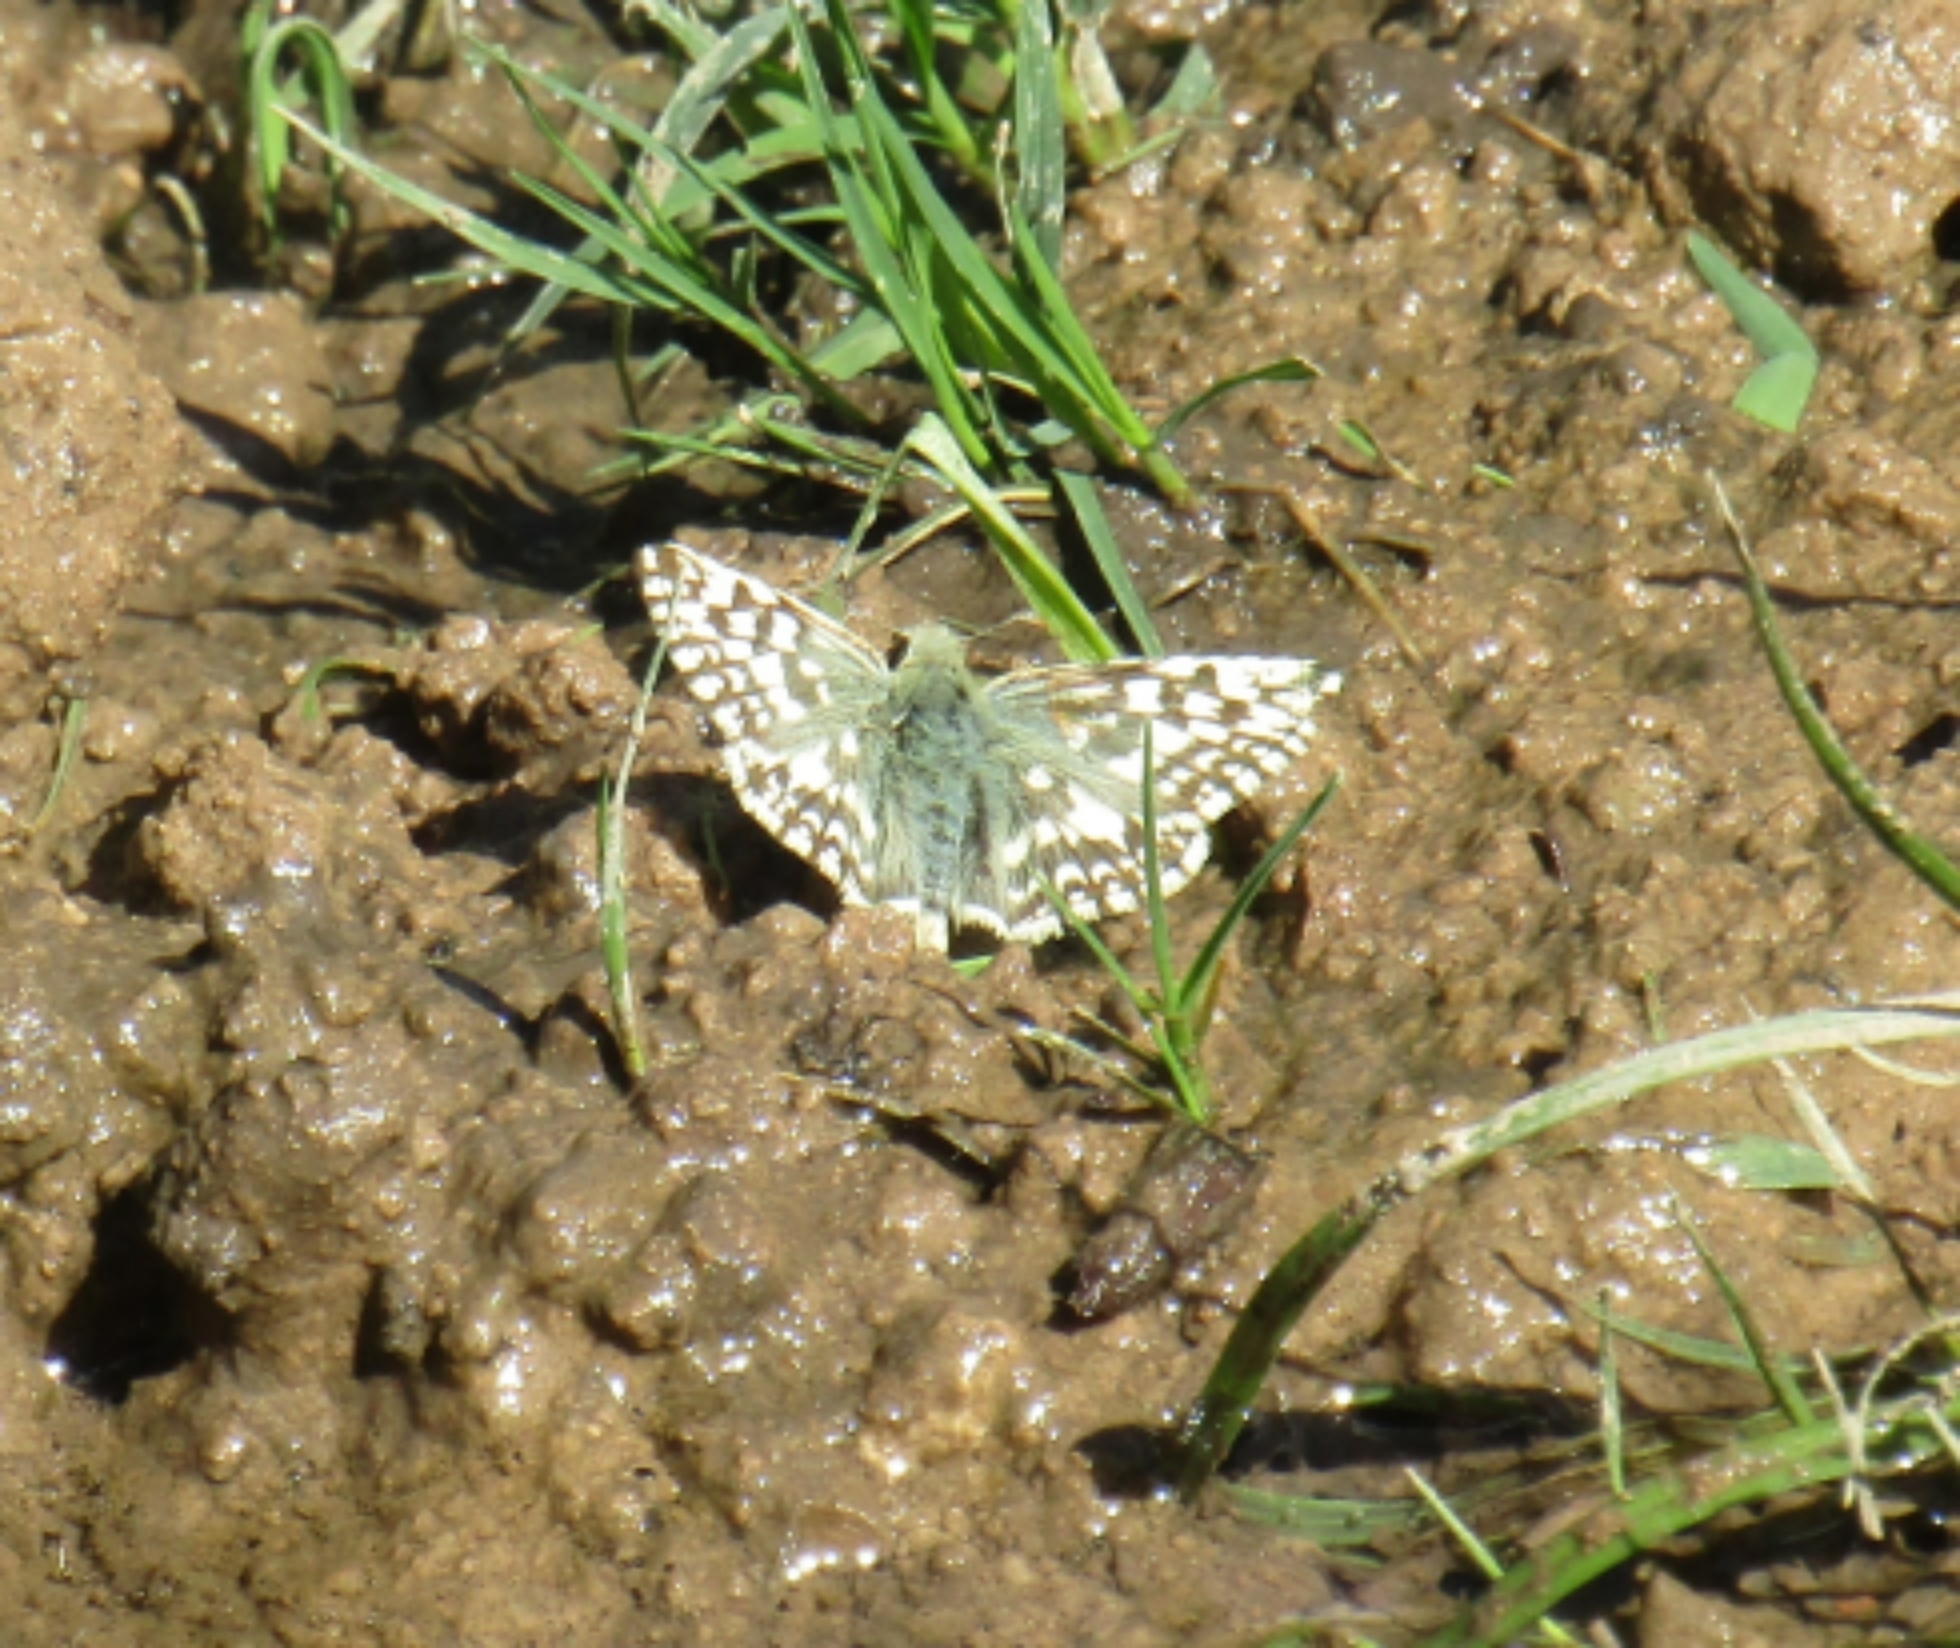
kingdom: Animalia
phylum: Arthropoda
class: Insecta
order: Lepidoptera
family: Hesperiidae
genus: Heliopetes
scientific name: Heliopetes americanus
